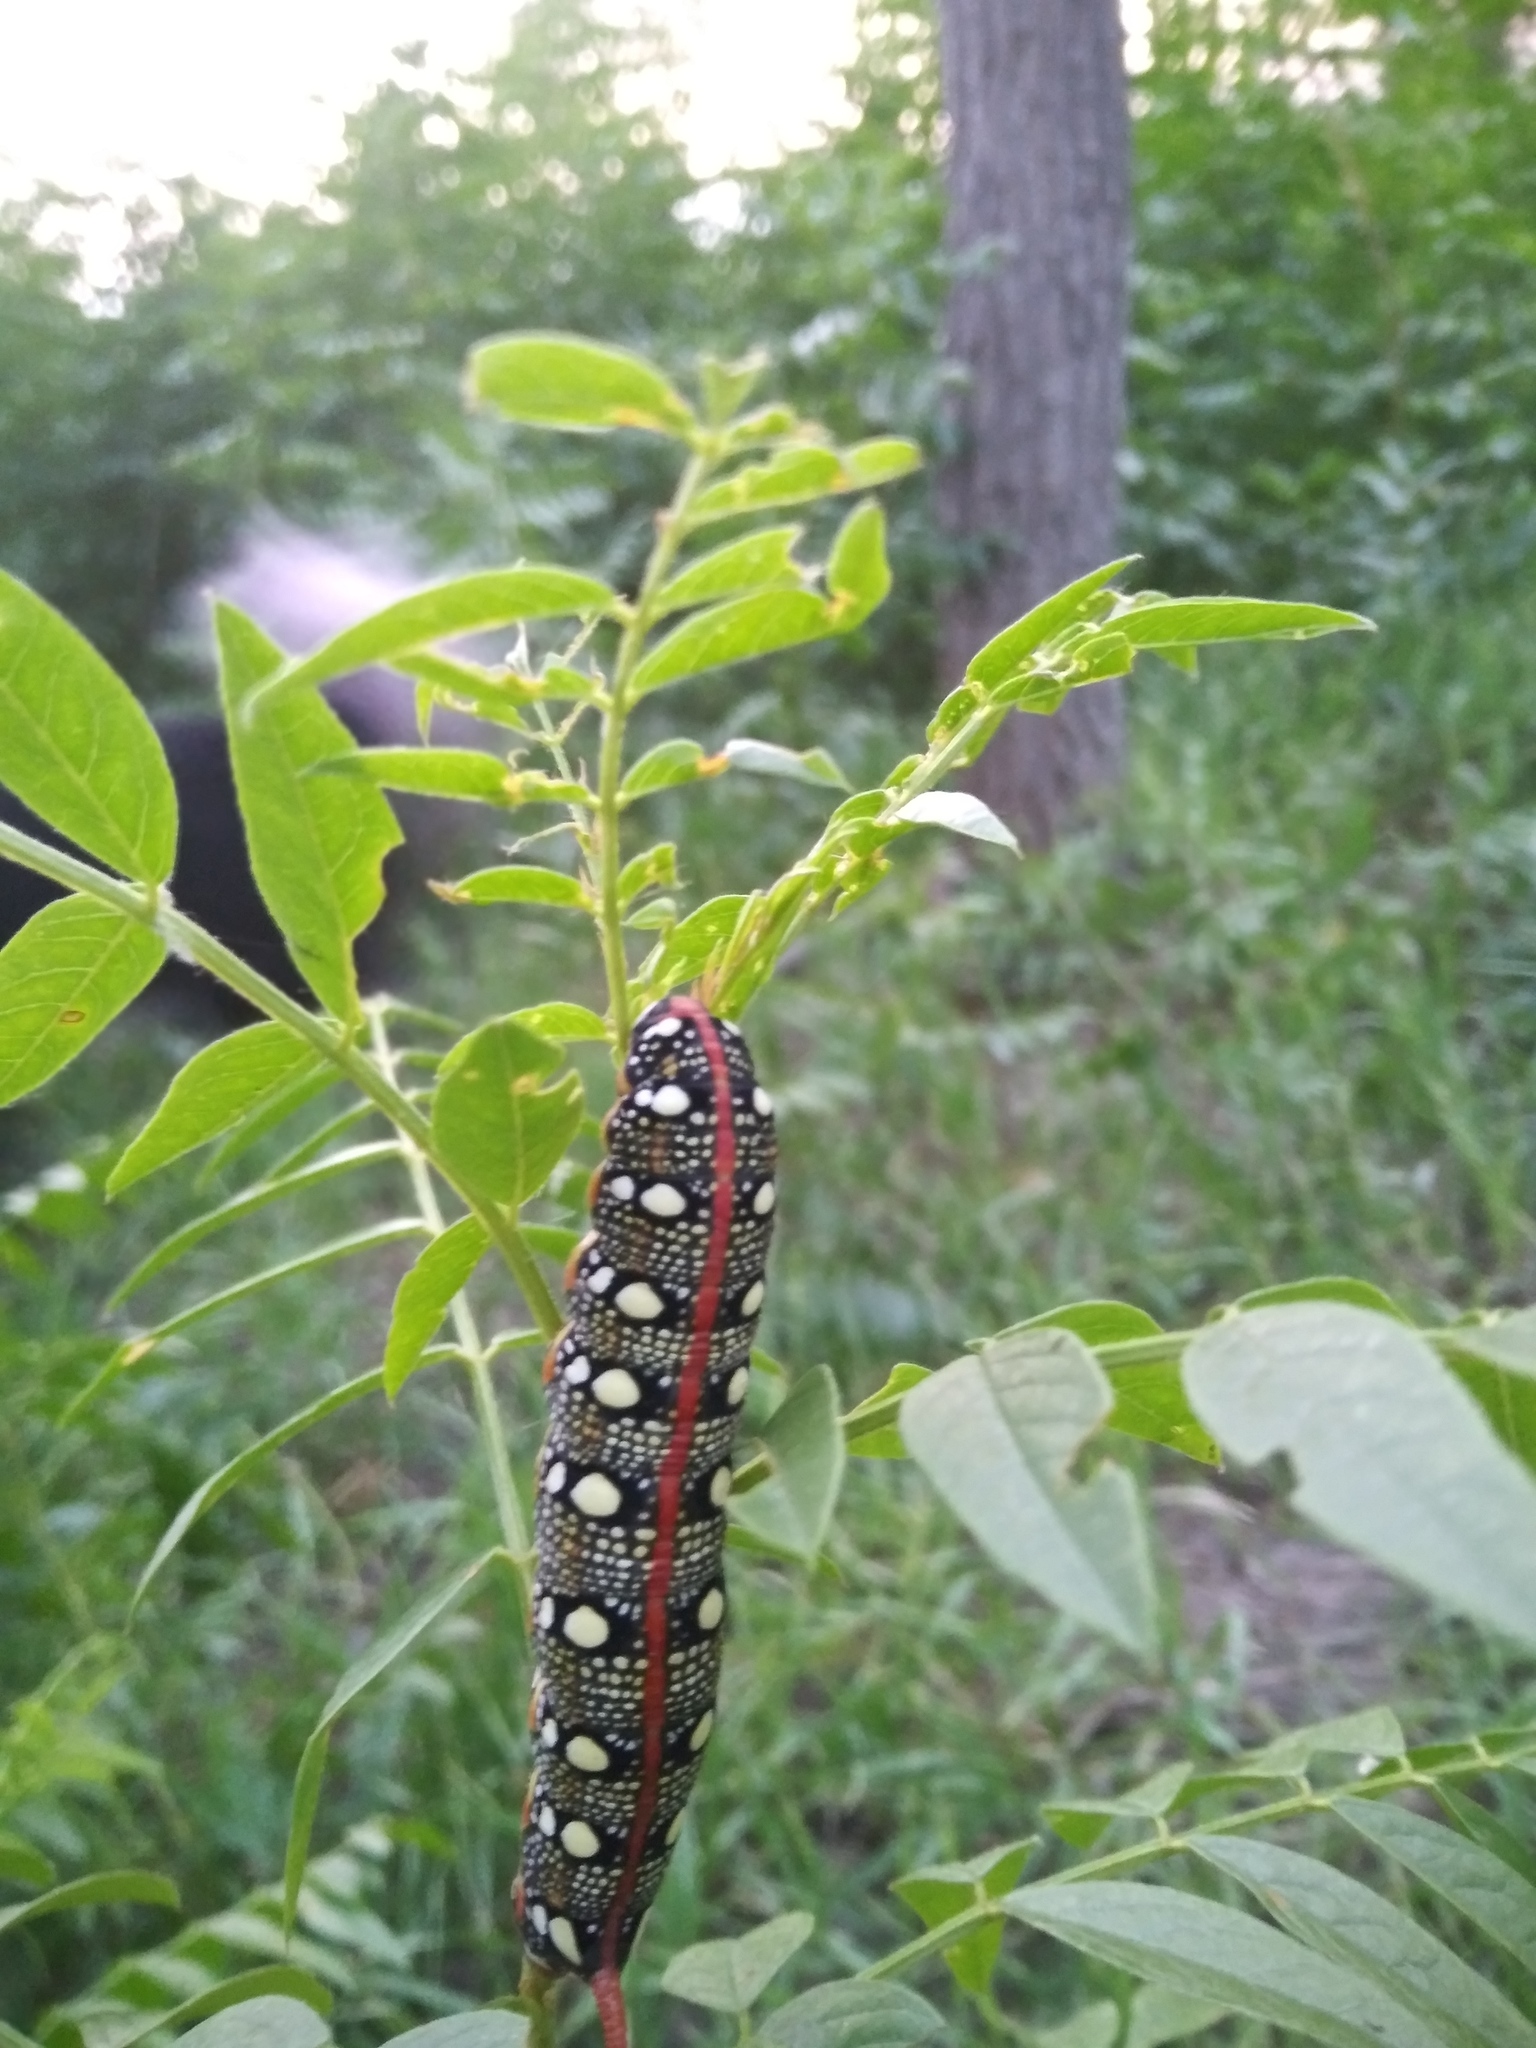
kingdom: Animalia
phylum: Arthropoda
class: Insecta
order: Lepidoptera
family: Sphingidae
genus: Hyles
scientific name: Hyles euphorbiae
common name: Spurge hawk-moth
